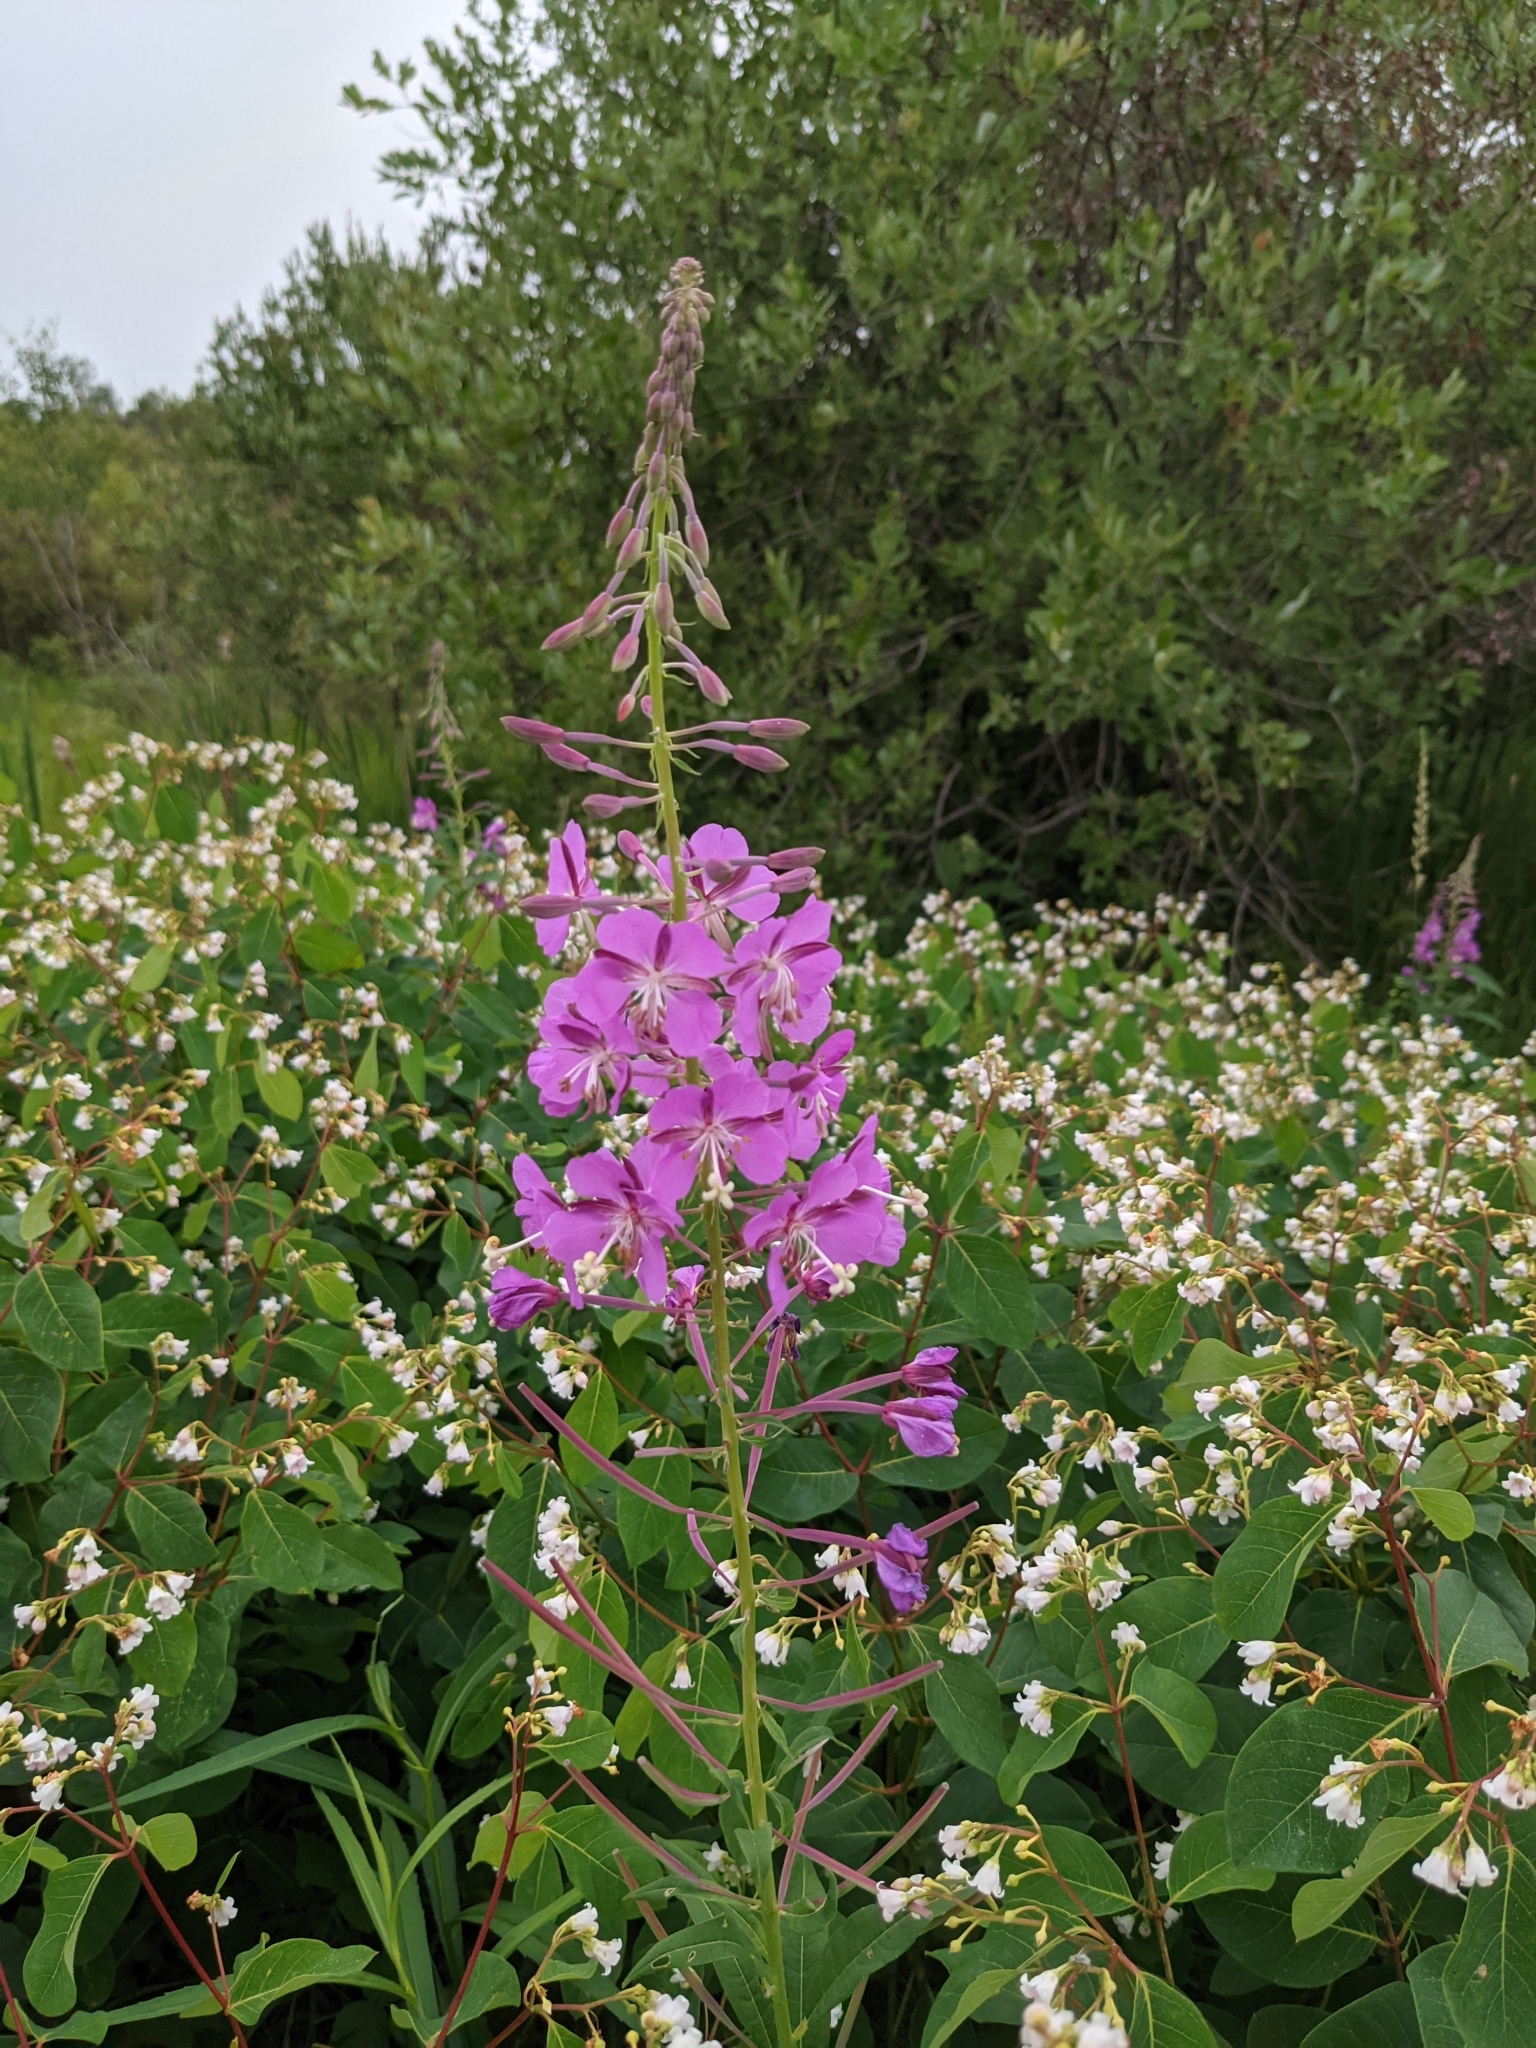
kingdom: Plantae
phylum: Tracheophyta
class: Magnoliopsida
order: Myrtales
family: Onagraceae
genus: Chamaenerion
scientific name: Chamaenerion angustifolium
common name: Fireweed
